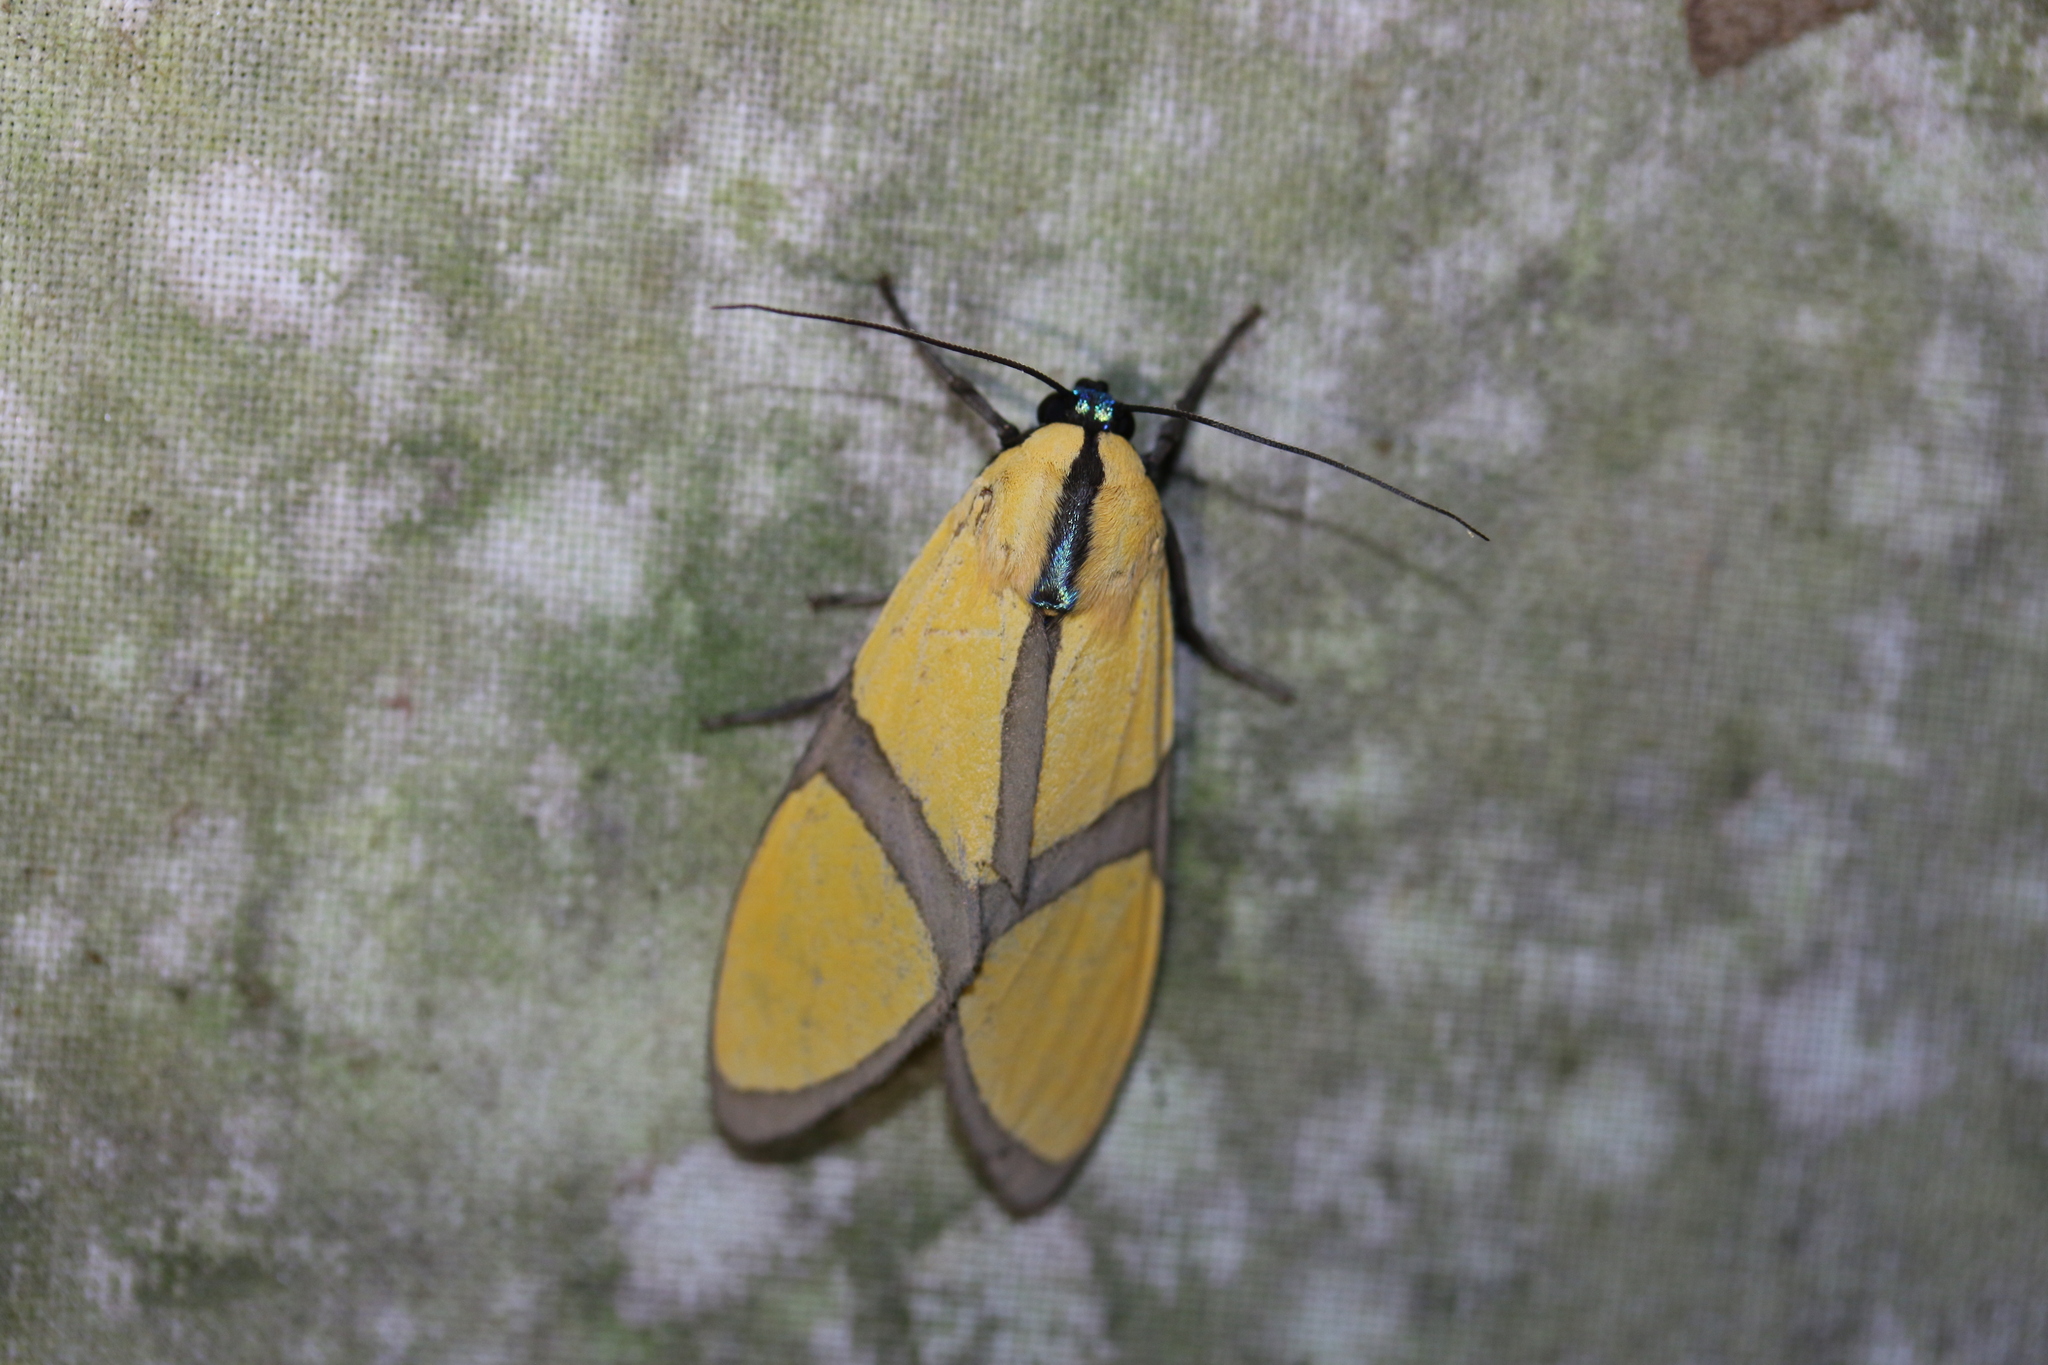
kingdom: Animalia
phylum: Arthropoda
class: Insecta
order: Lepidoptera
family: Erebidae
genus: Ormetica
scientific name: Ormetica ameoides
